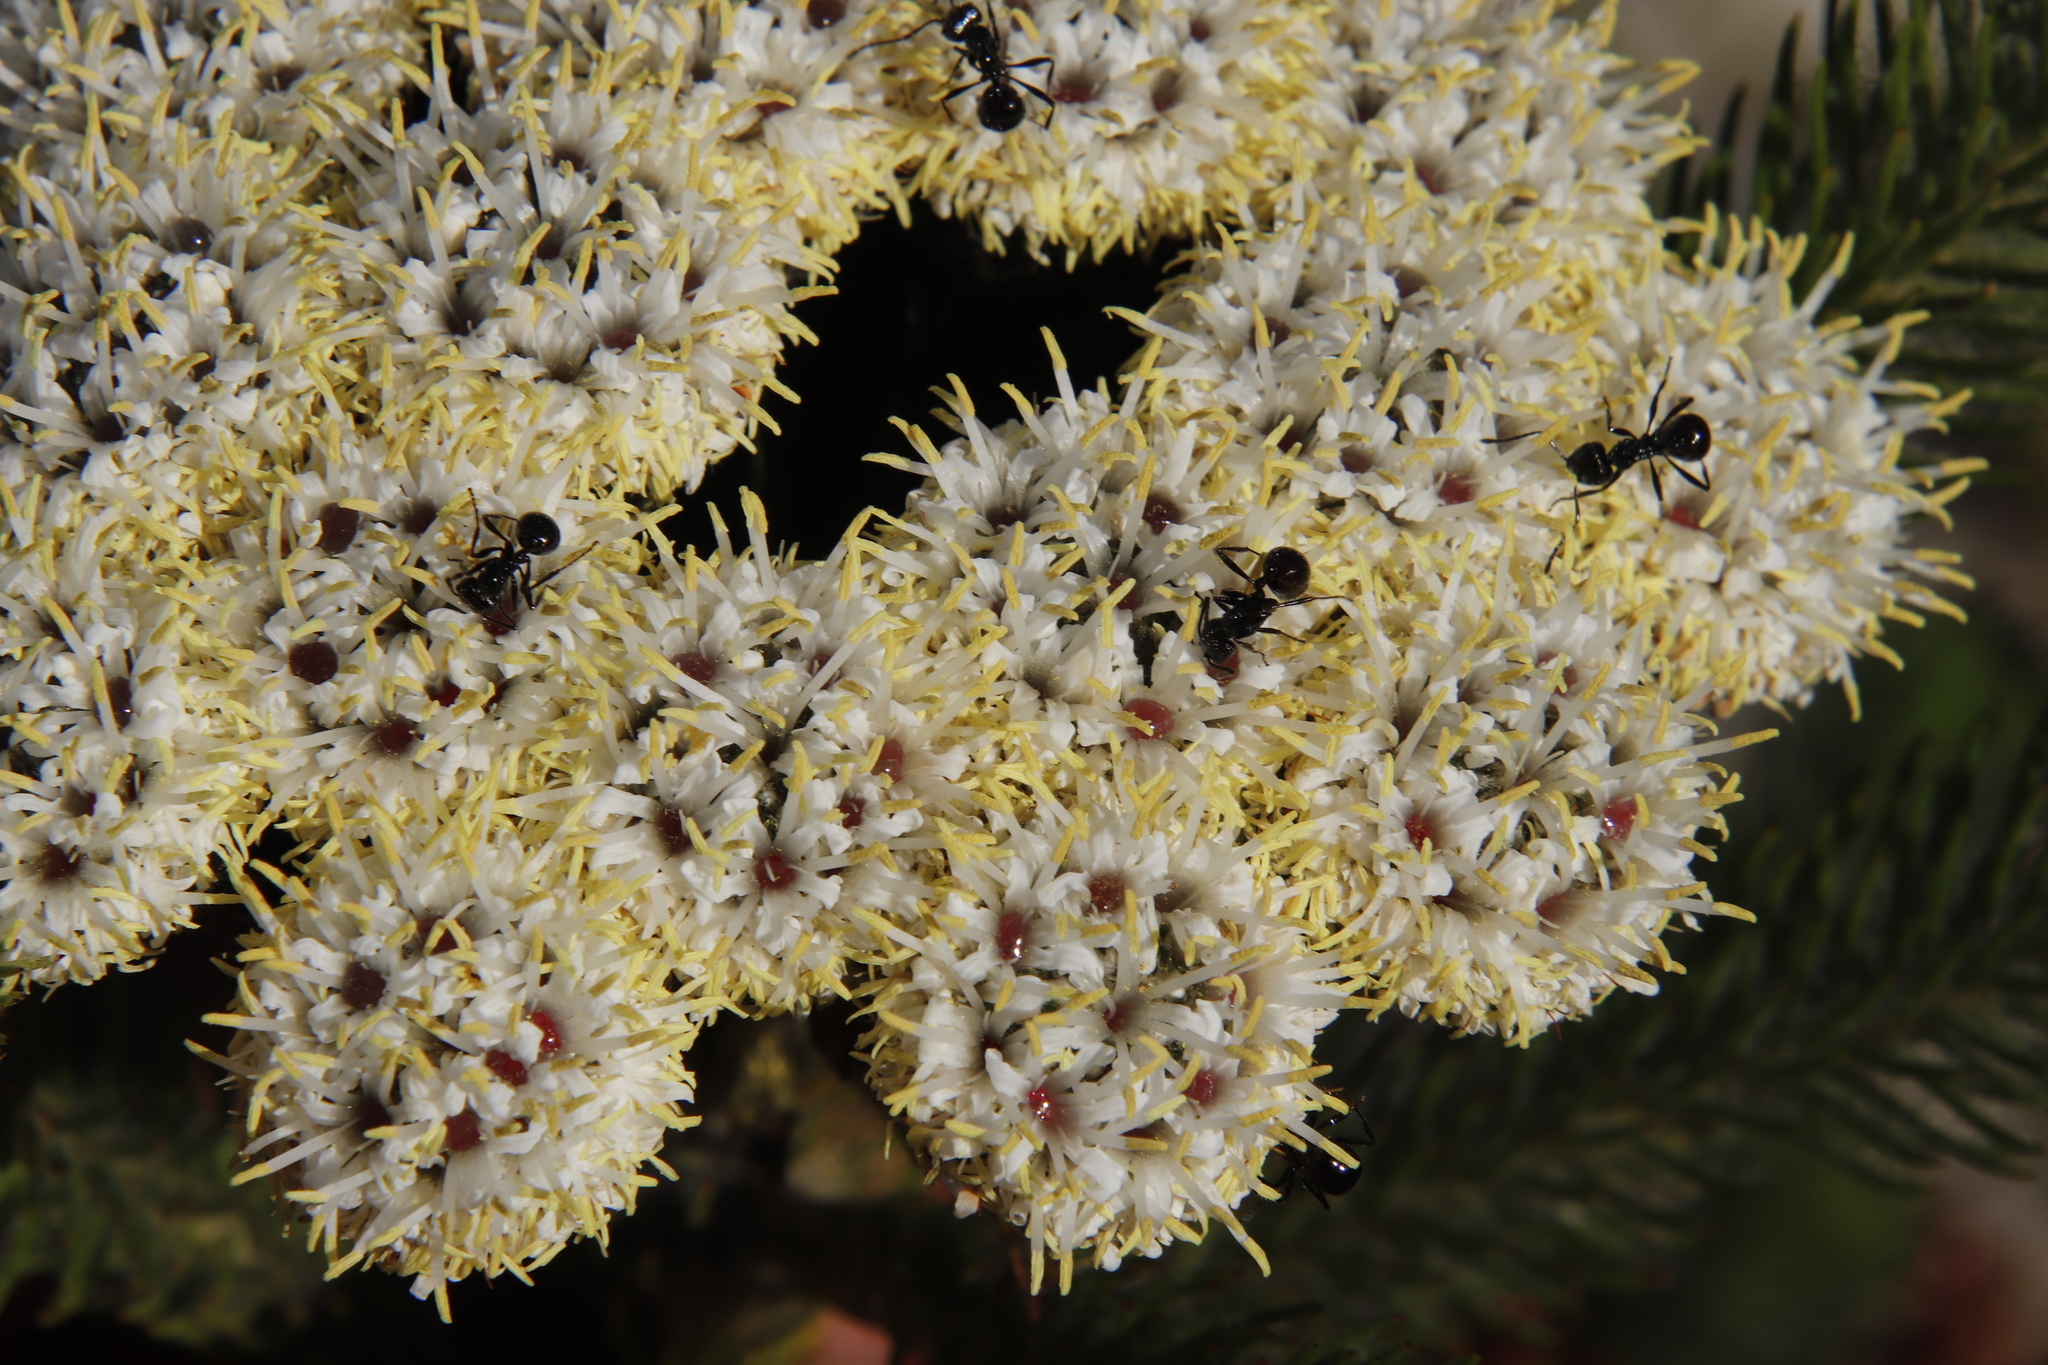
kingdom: Animalia
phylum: Arthropoda
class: Insecta
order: Hymenoptera
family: Formicidae
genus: Myrmicaria
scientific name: Myrmicaria nigra
